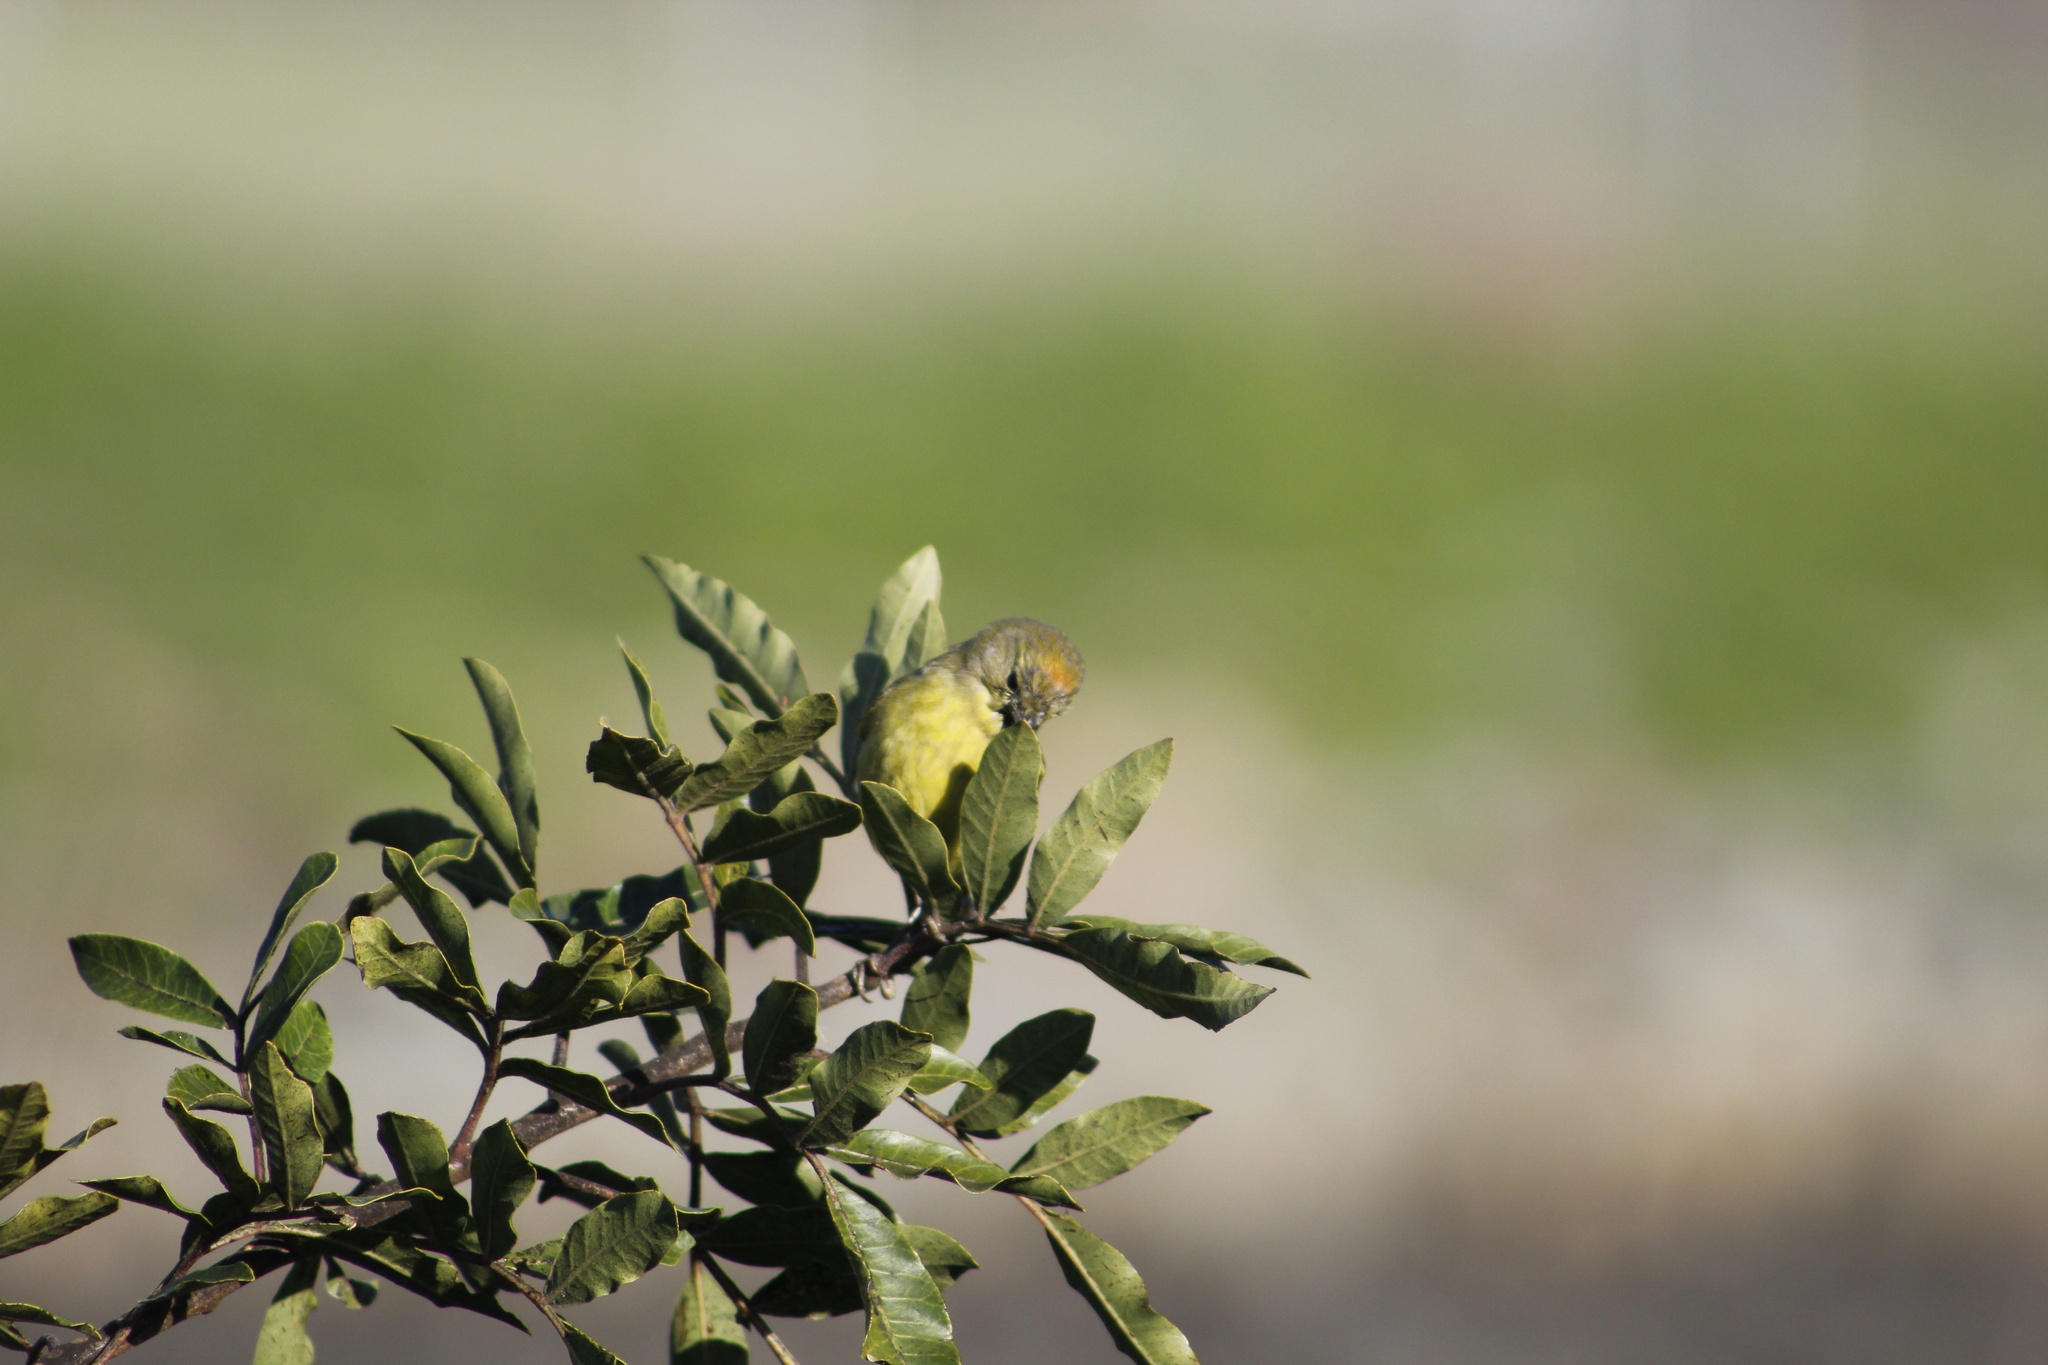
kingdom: Animalia
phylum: Chordata
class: Aves
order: Passeriformes
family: Parulidae
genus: Leiothlypis
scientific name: Leiothlypis celata
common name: Orange-crowned warbler
